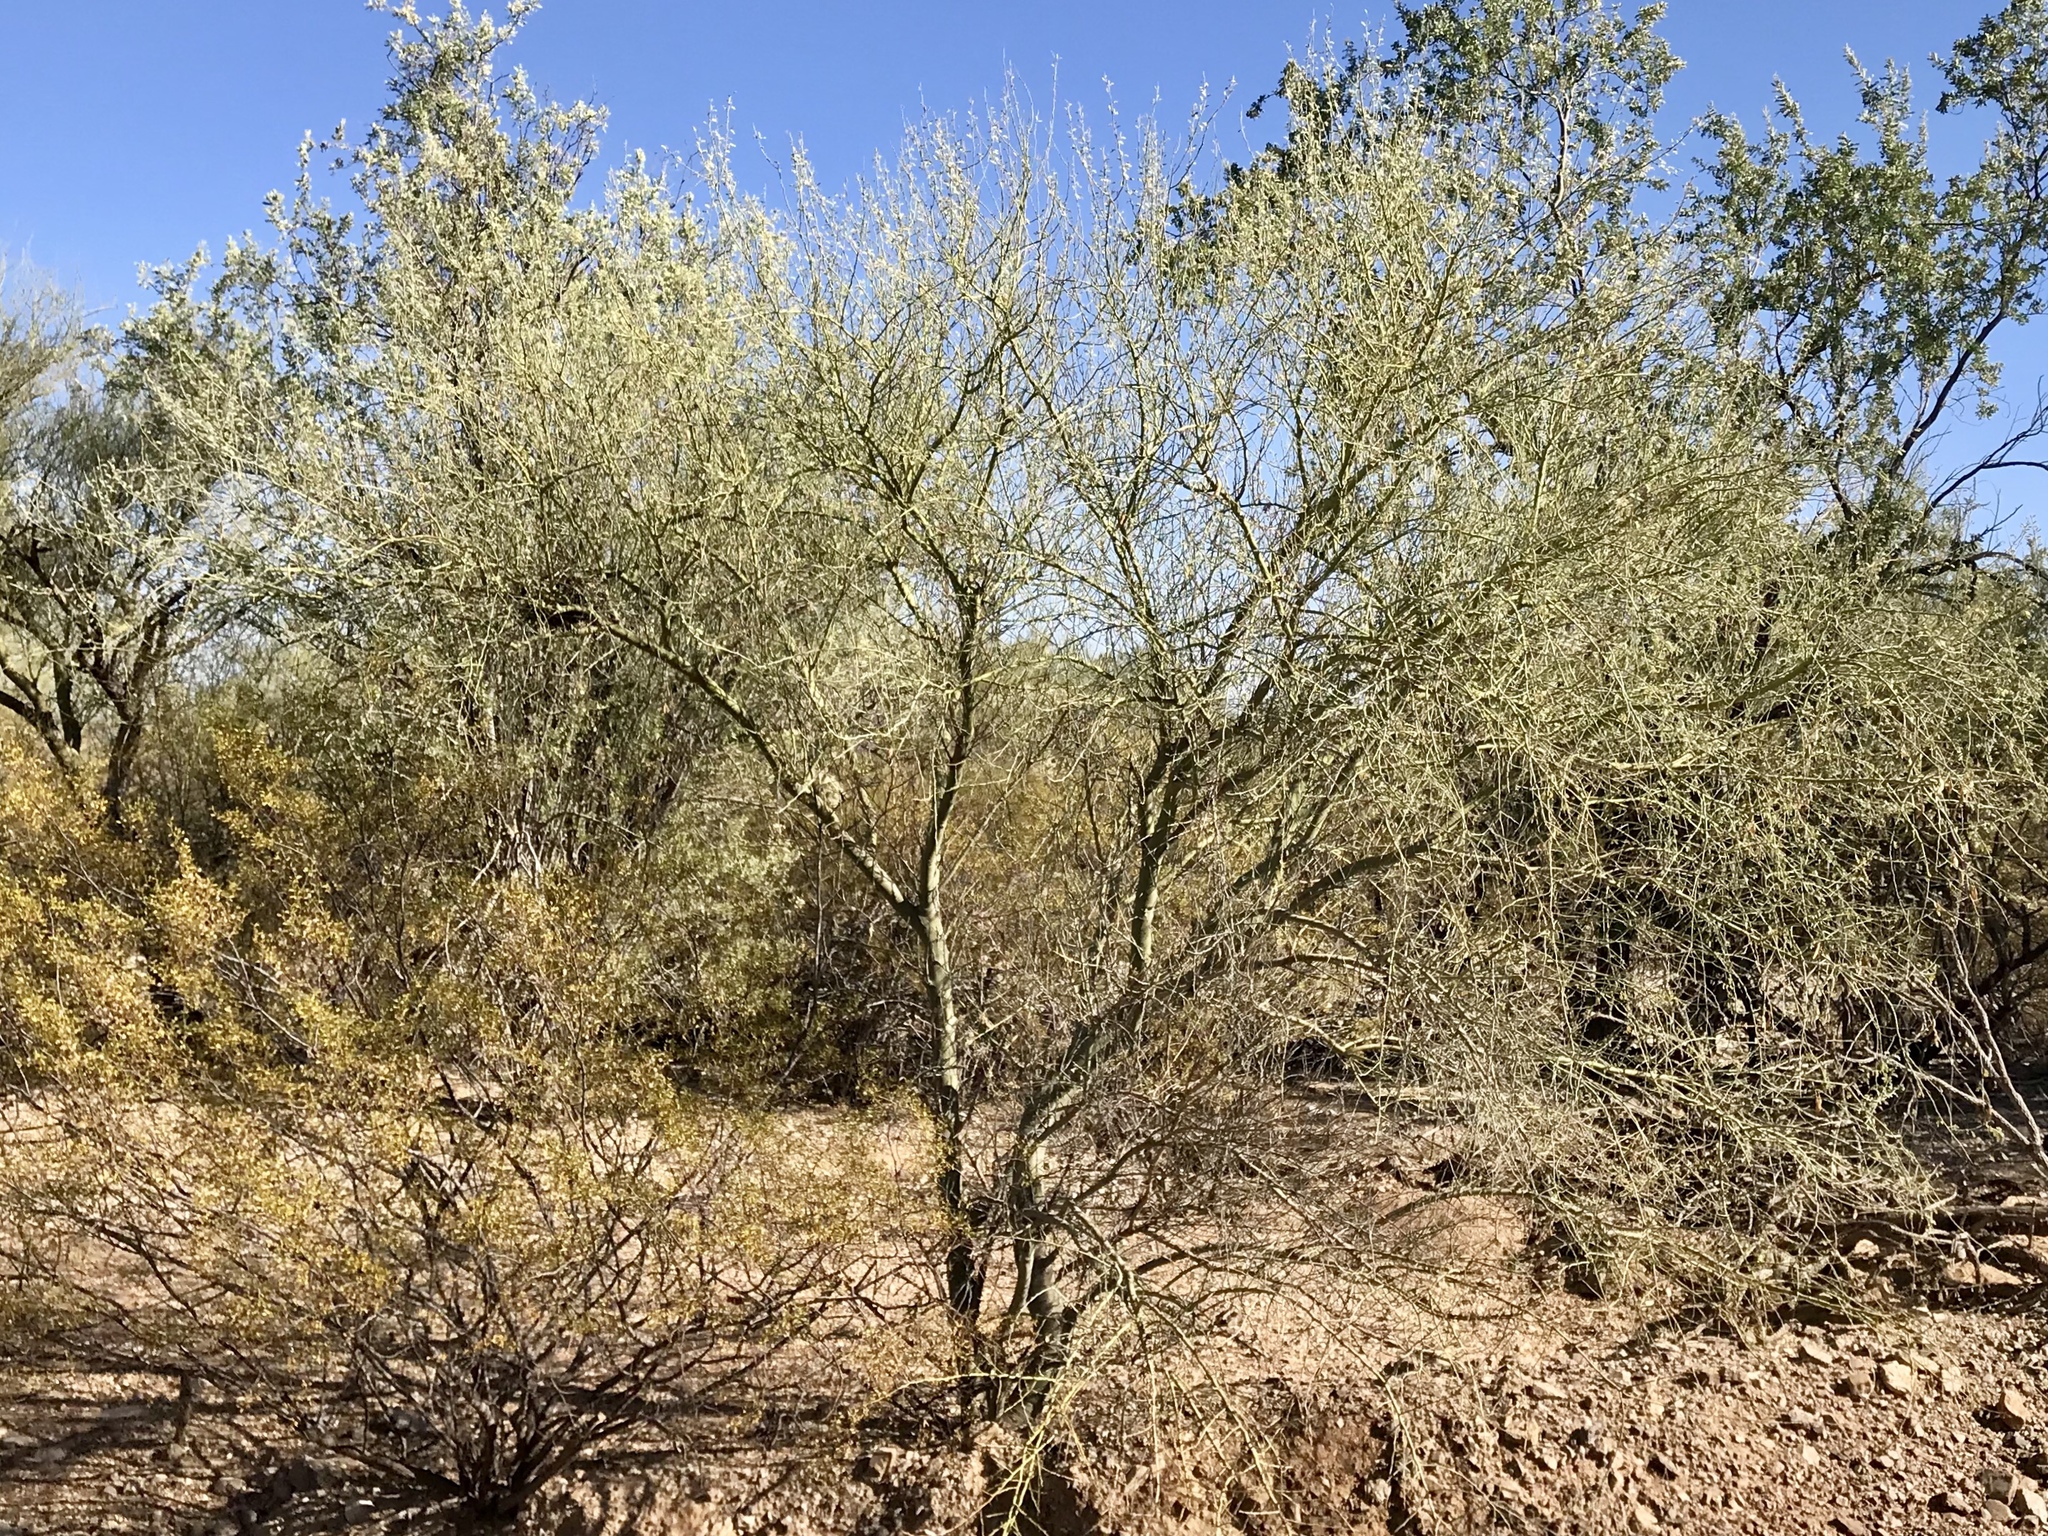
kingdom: Plantae
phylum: Tracheophyta
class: Magnoliopsida
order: Fabales
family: Fabaceae
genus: Parkinsonia
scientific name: Parkinsonia microphylla
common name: Yellow paloverde
